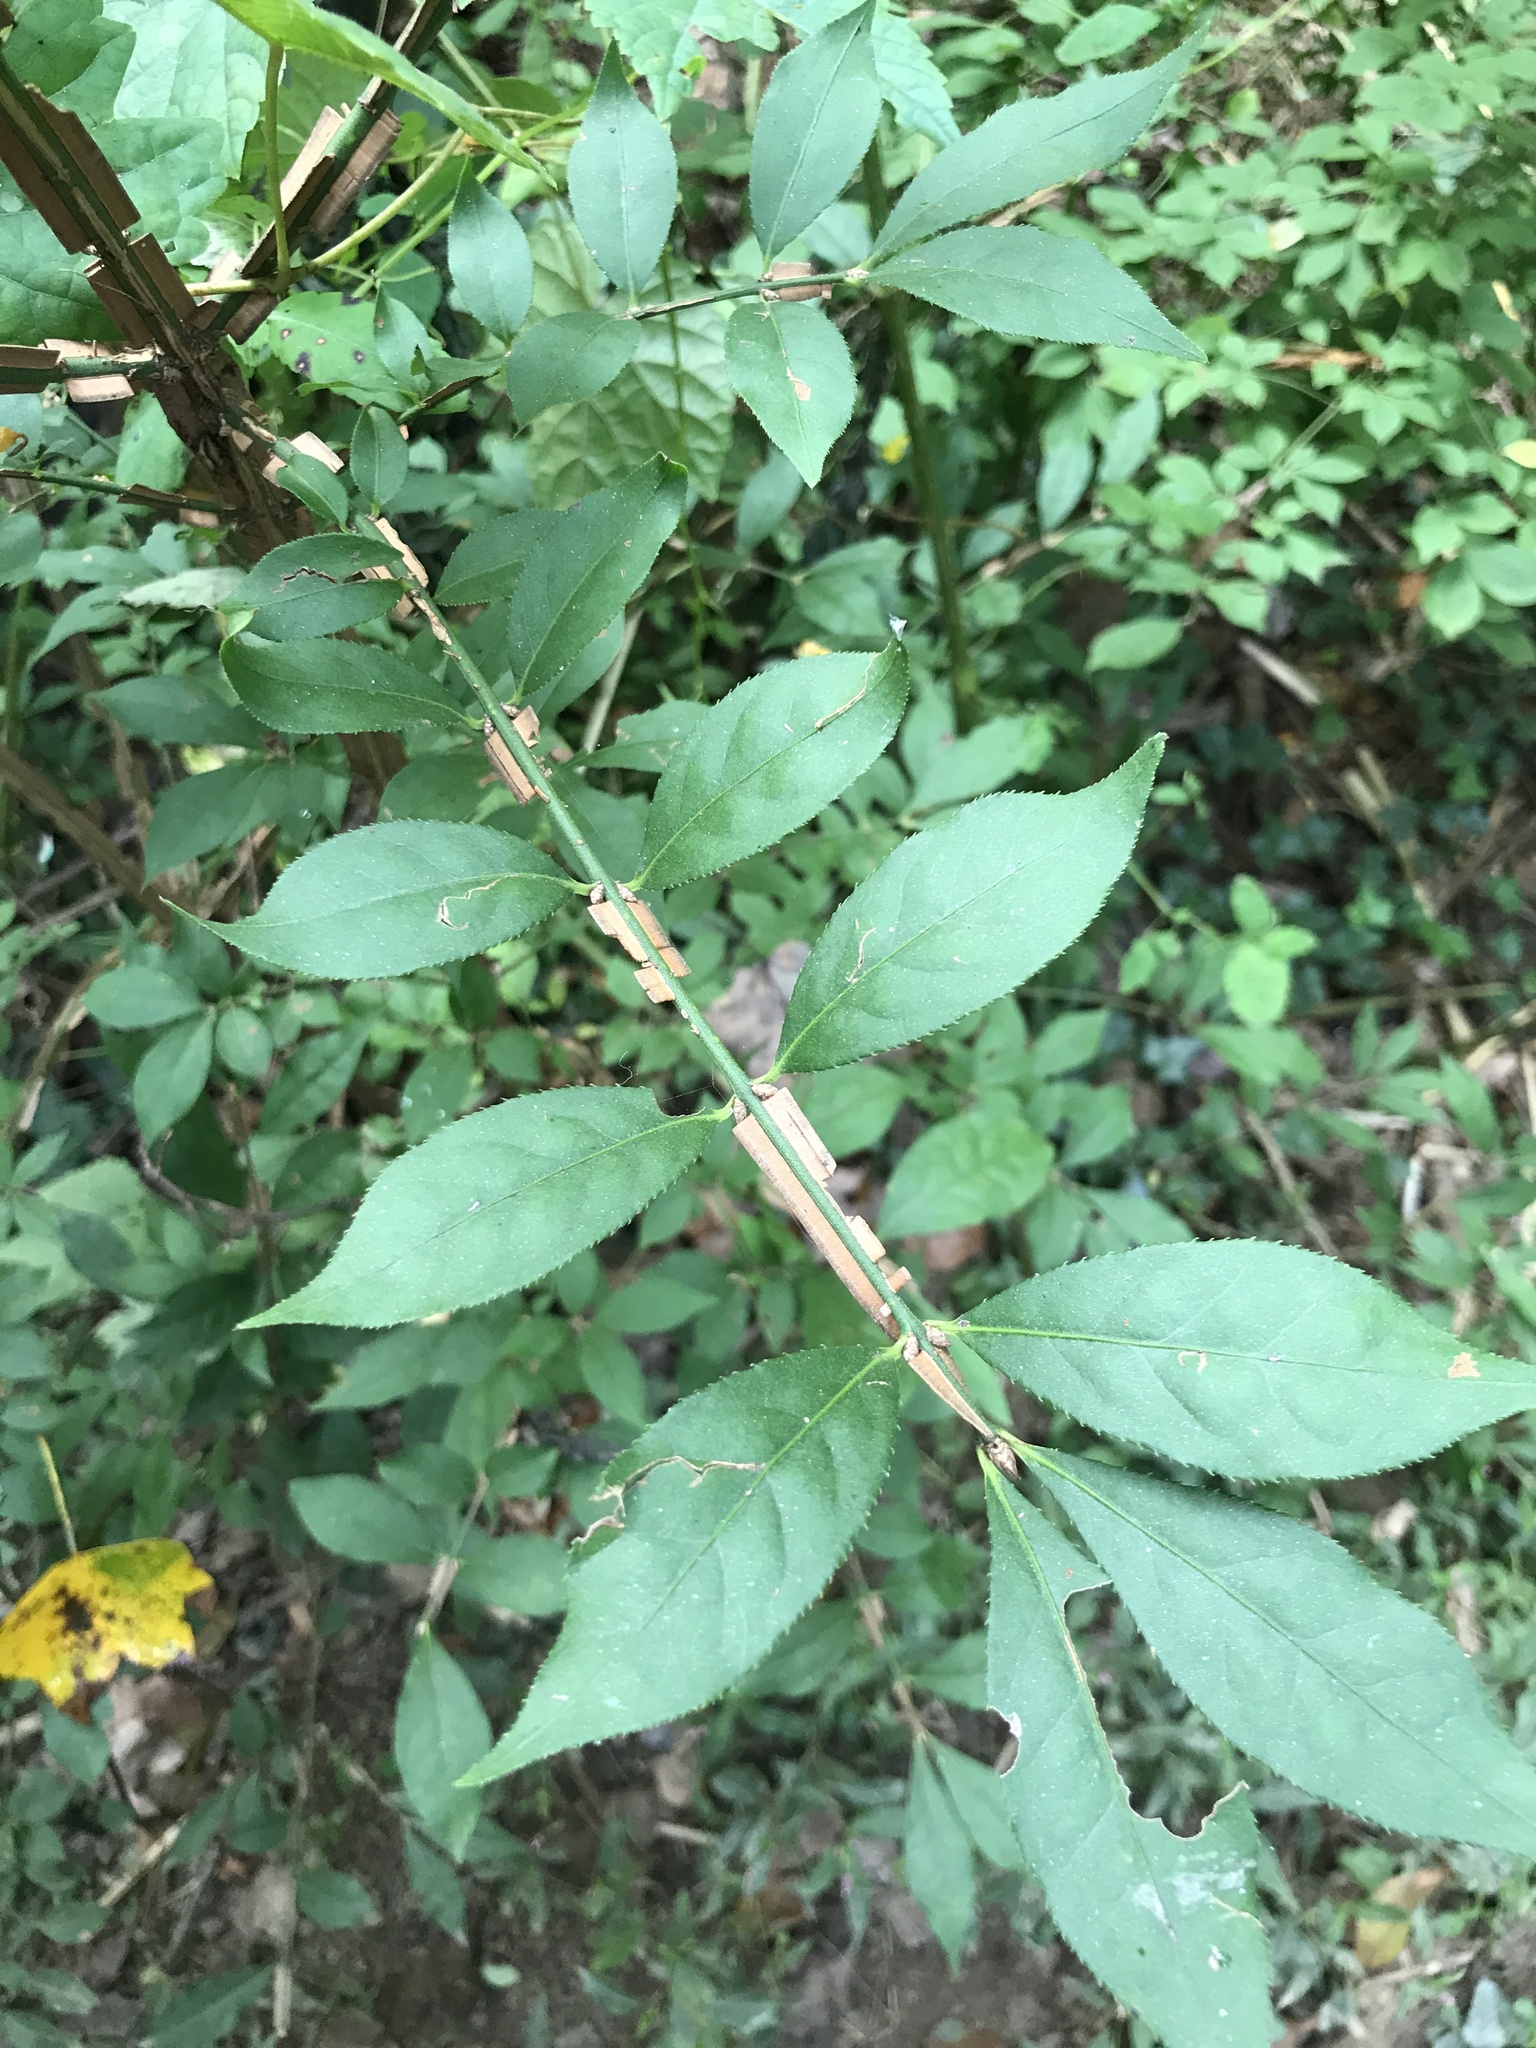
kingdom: Plantae
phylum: Tracheophyta
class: Magnoliopsida
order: Celastrales
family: Celastraceae
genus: Euonymus
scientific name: Euonymus alatus
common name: Winged euonymus
